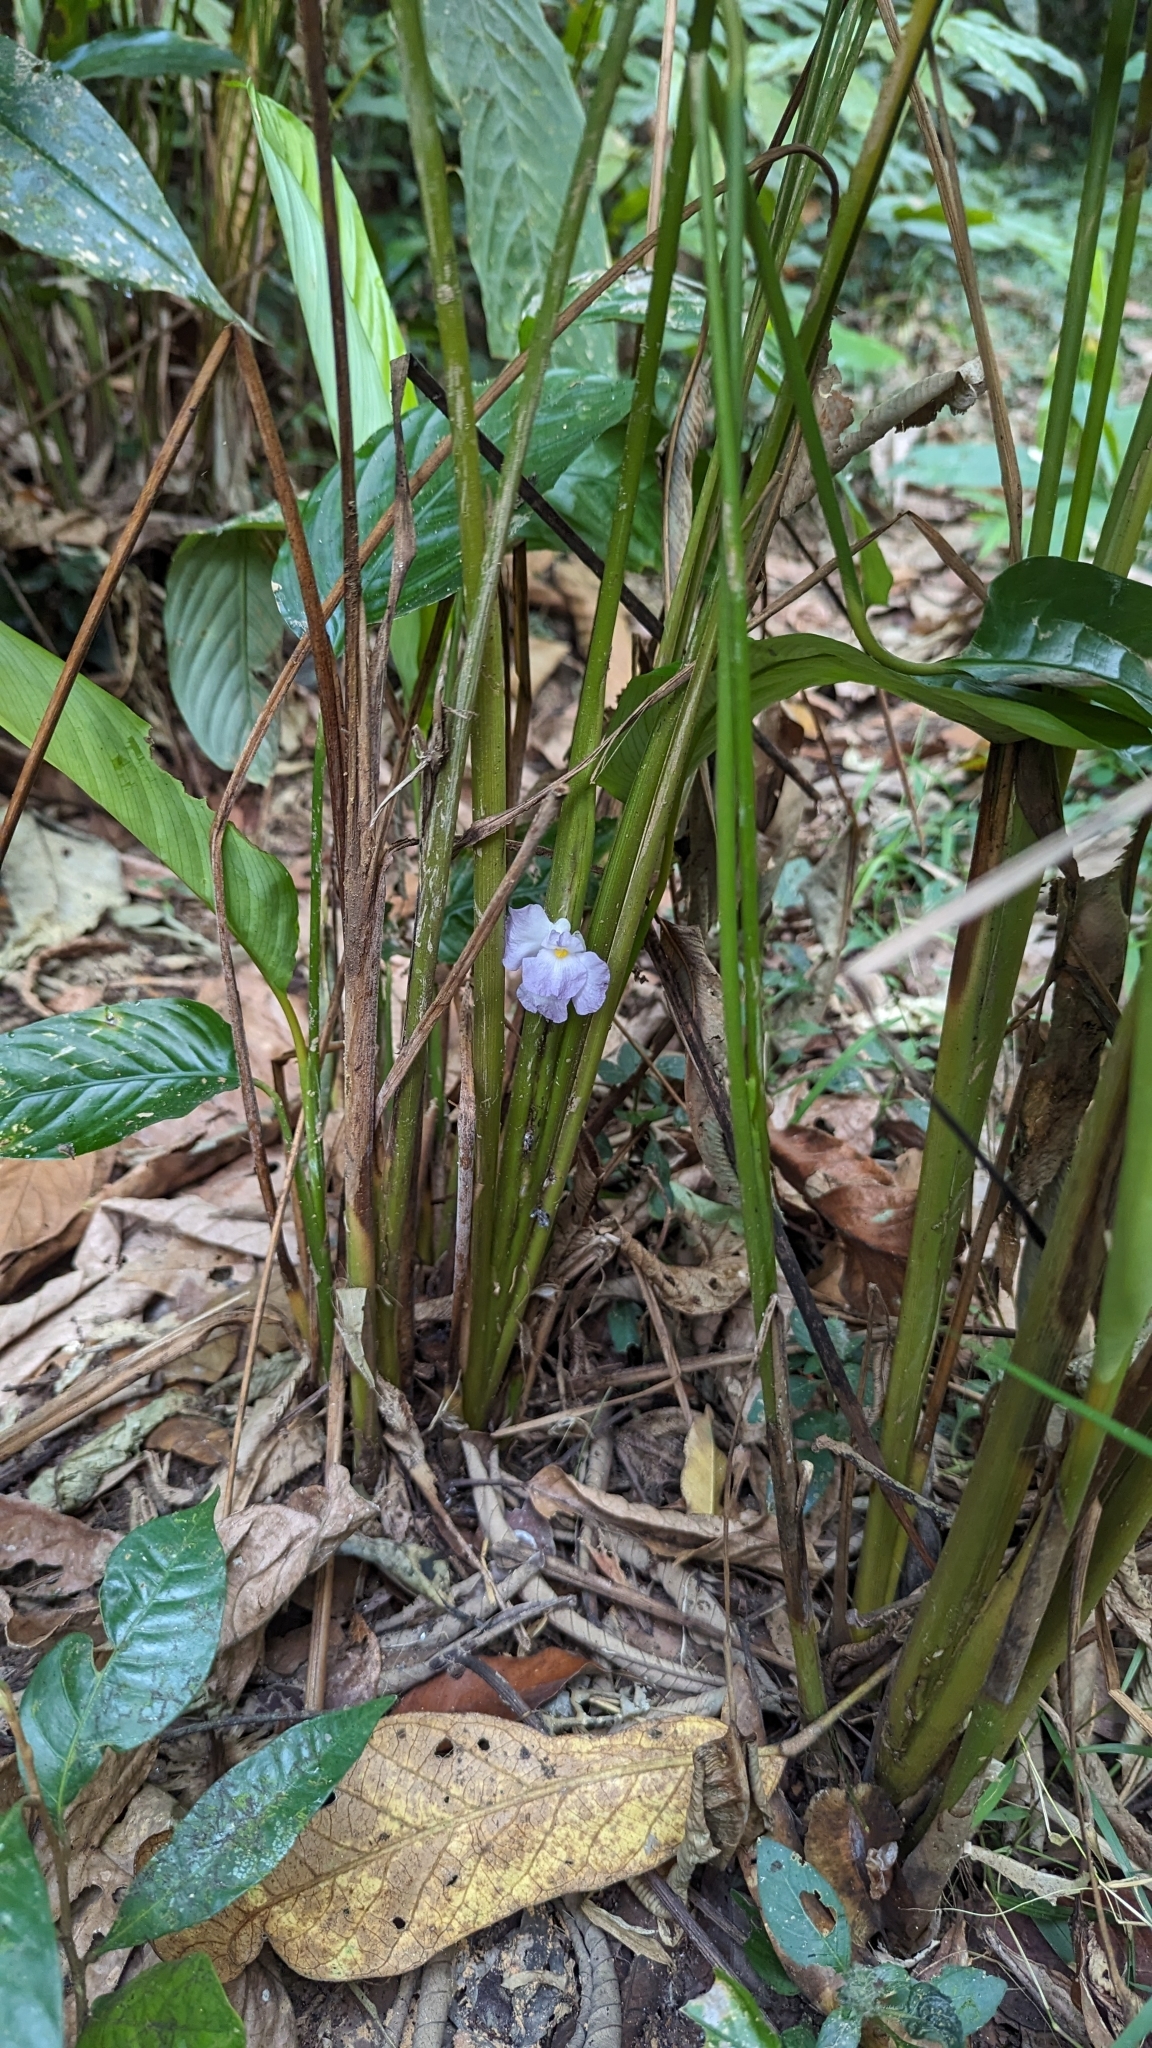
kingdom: Plantae
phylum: Tracheophyta
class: Liliopsida
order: Zingiberales
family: Marantaceae
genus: Halopegia
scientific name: Halopegia azurea
